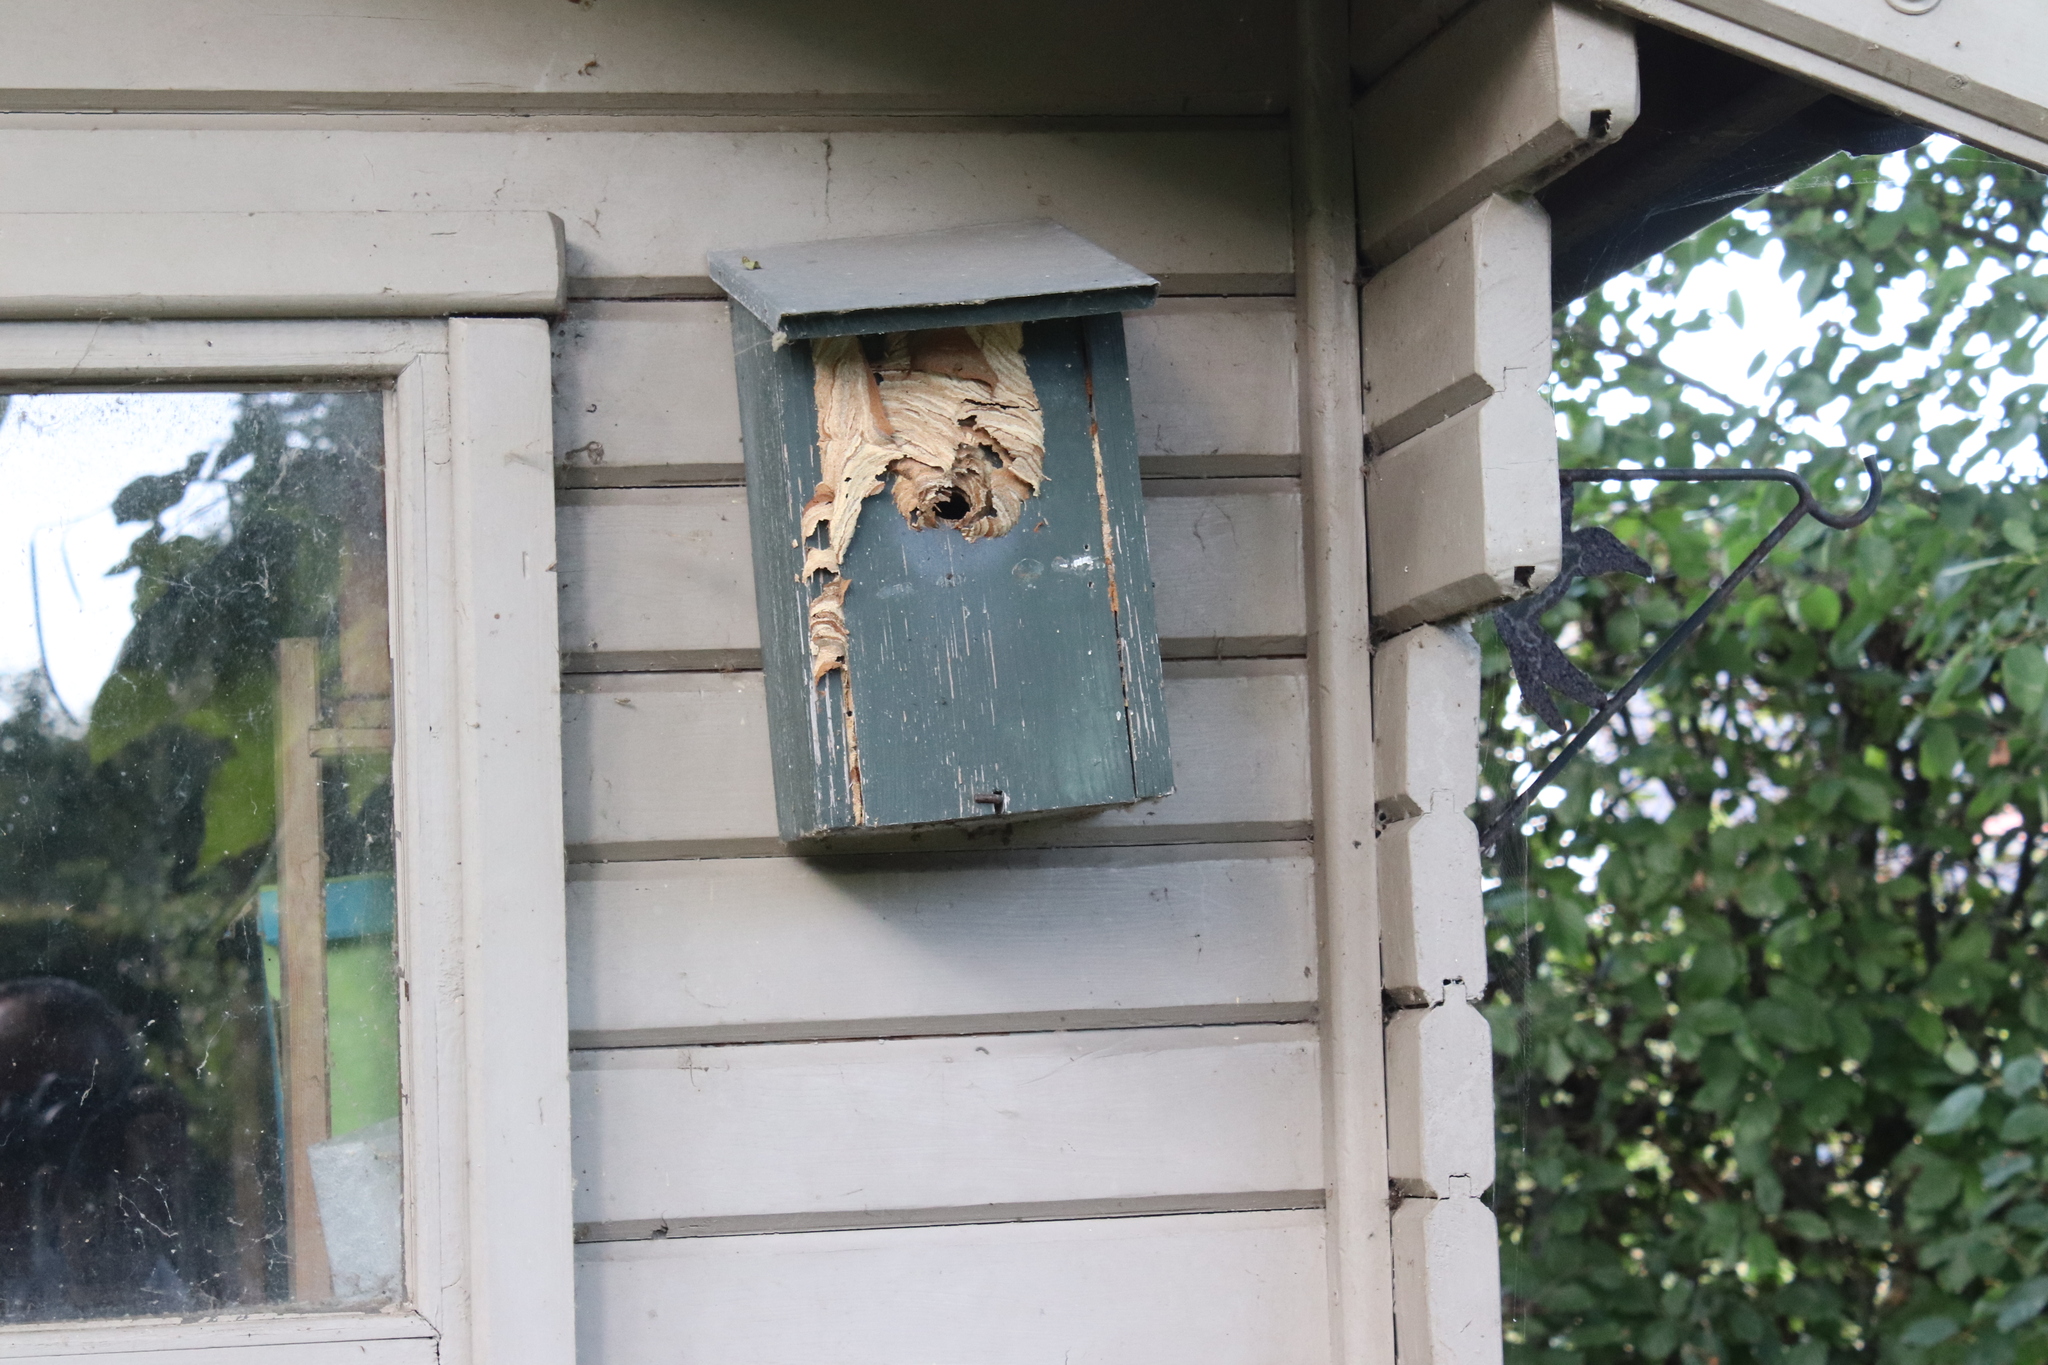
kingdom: Animalia
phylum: Arthropoda
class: Insecta
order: Hymenoptera
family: Vespidae
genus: Vespa
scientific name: Vespa velutina
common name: Asian hornet
